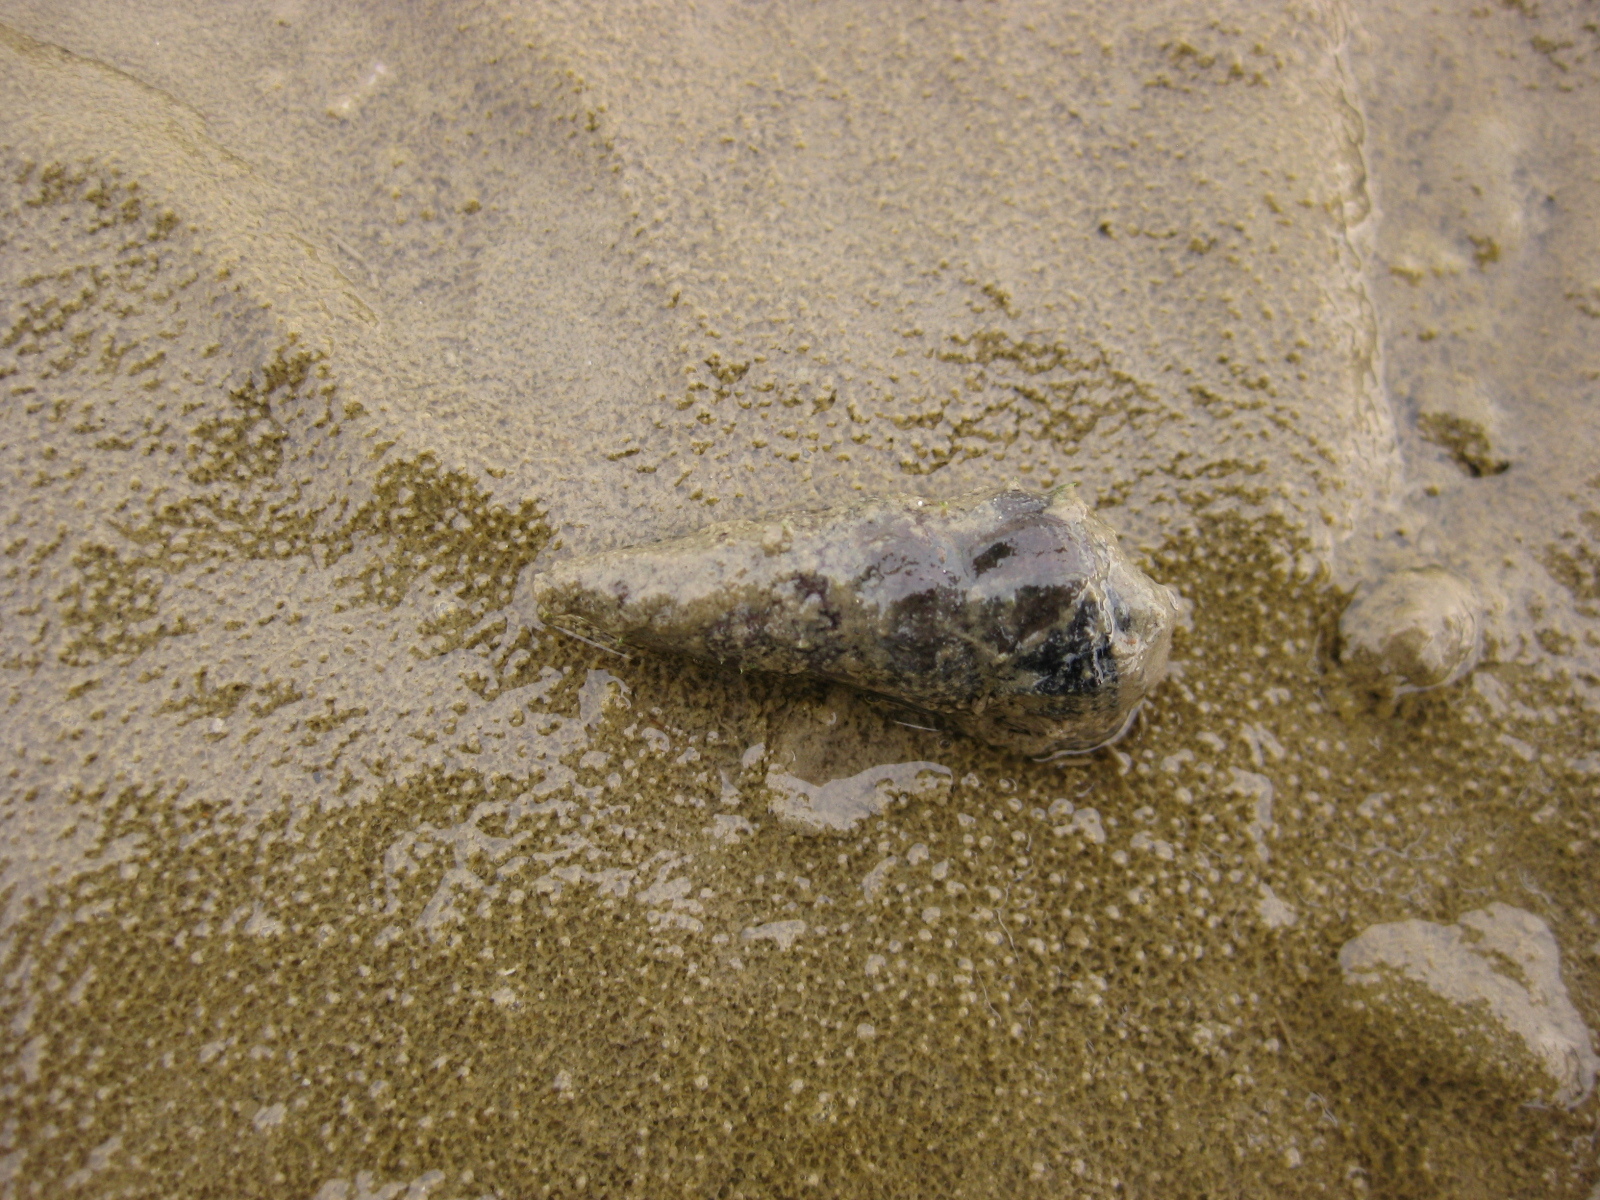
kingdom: Animalia
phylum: Mollusca
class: Gastropoda
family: Batillariidae
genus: Zeacumantus
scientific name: Zeacumantus lutulentus
